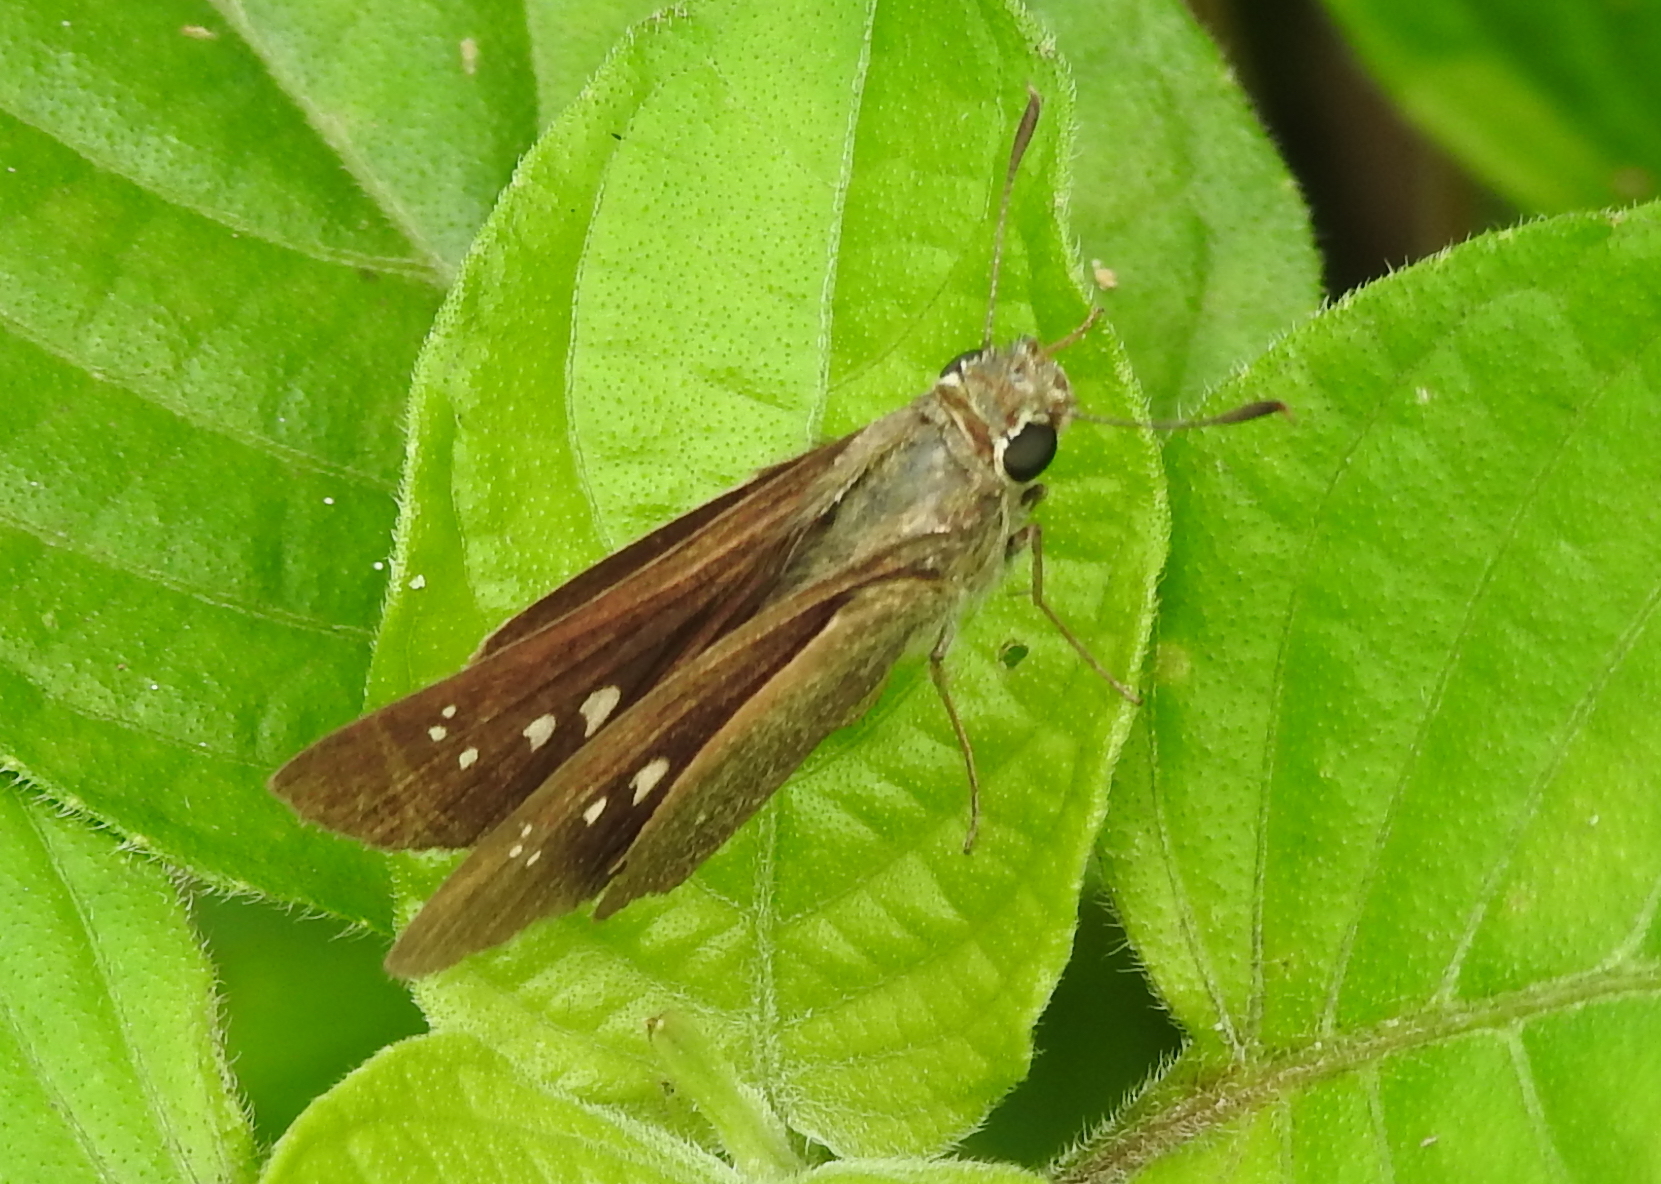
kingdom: Animalia
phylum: Arthropoda
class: Insecta
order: Lepidoptera
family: Hesperiidae
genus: Parnara
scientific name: Parnara naso
